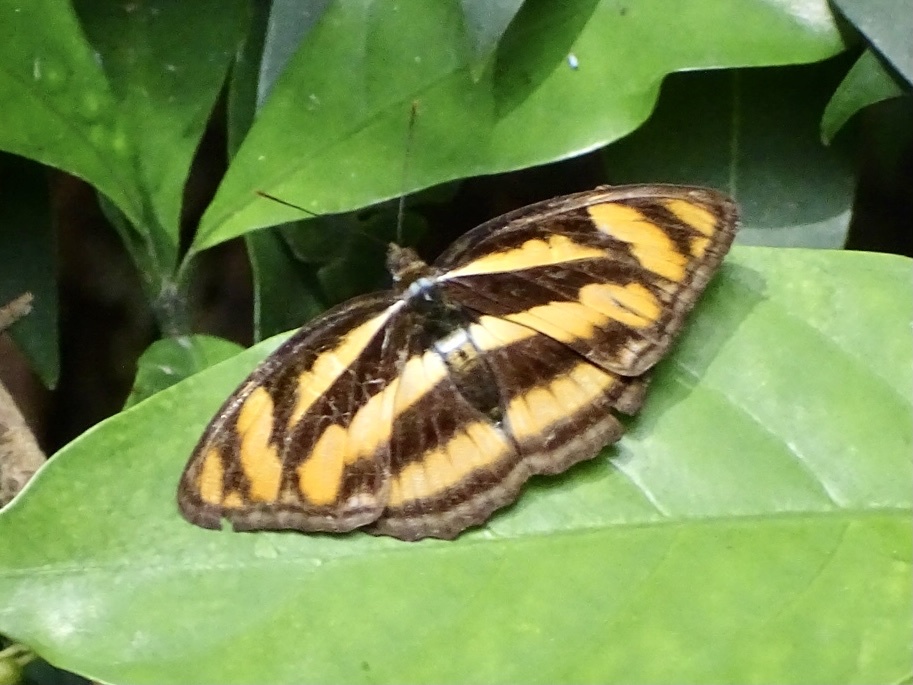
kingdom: Animalia
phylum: Arthropoda
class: Insecta
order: Lepidoptera
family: Nymphalidae
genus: Parathyma
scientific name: Parathyma nefte
